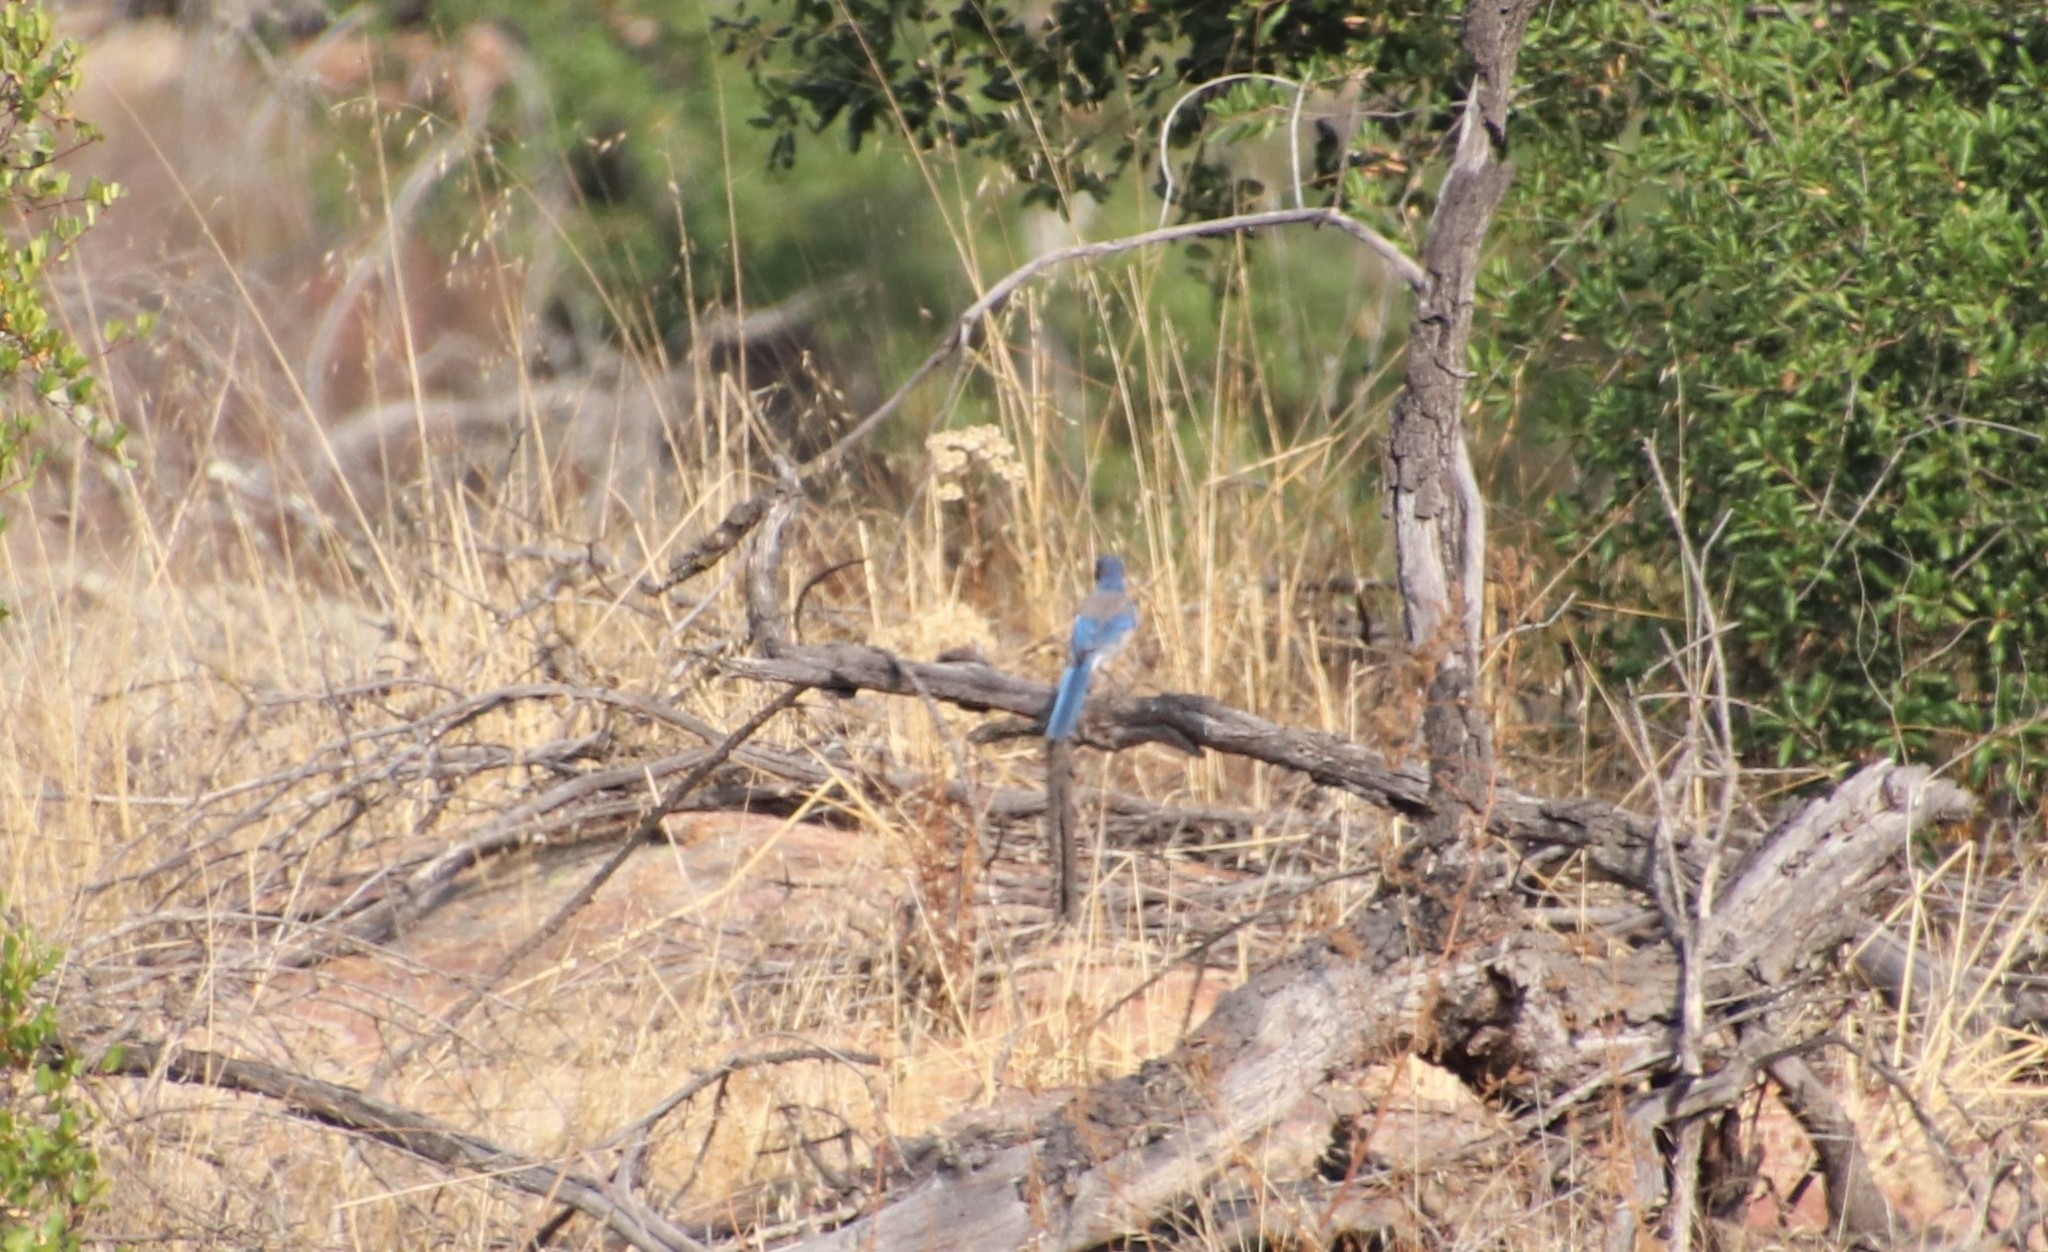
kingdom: Animalia
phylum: Chordata
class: Aves
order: Passeriformes
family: Corvidae
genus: Aphelocoma
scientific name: Aphelocoma californica
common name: California scrub-jay
